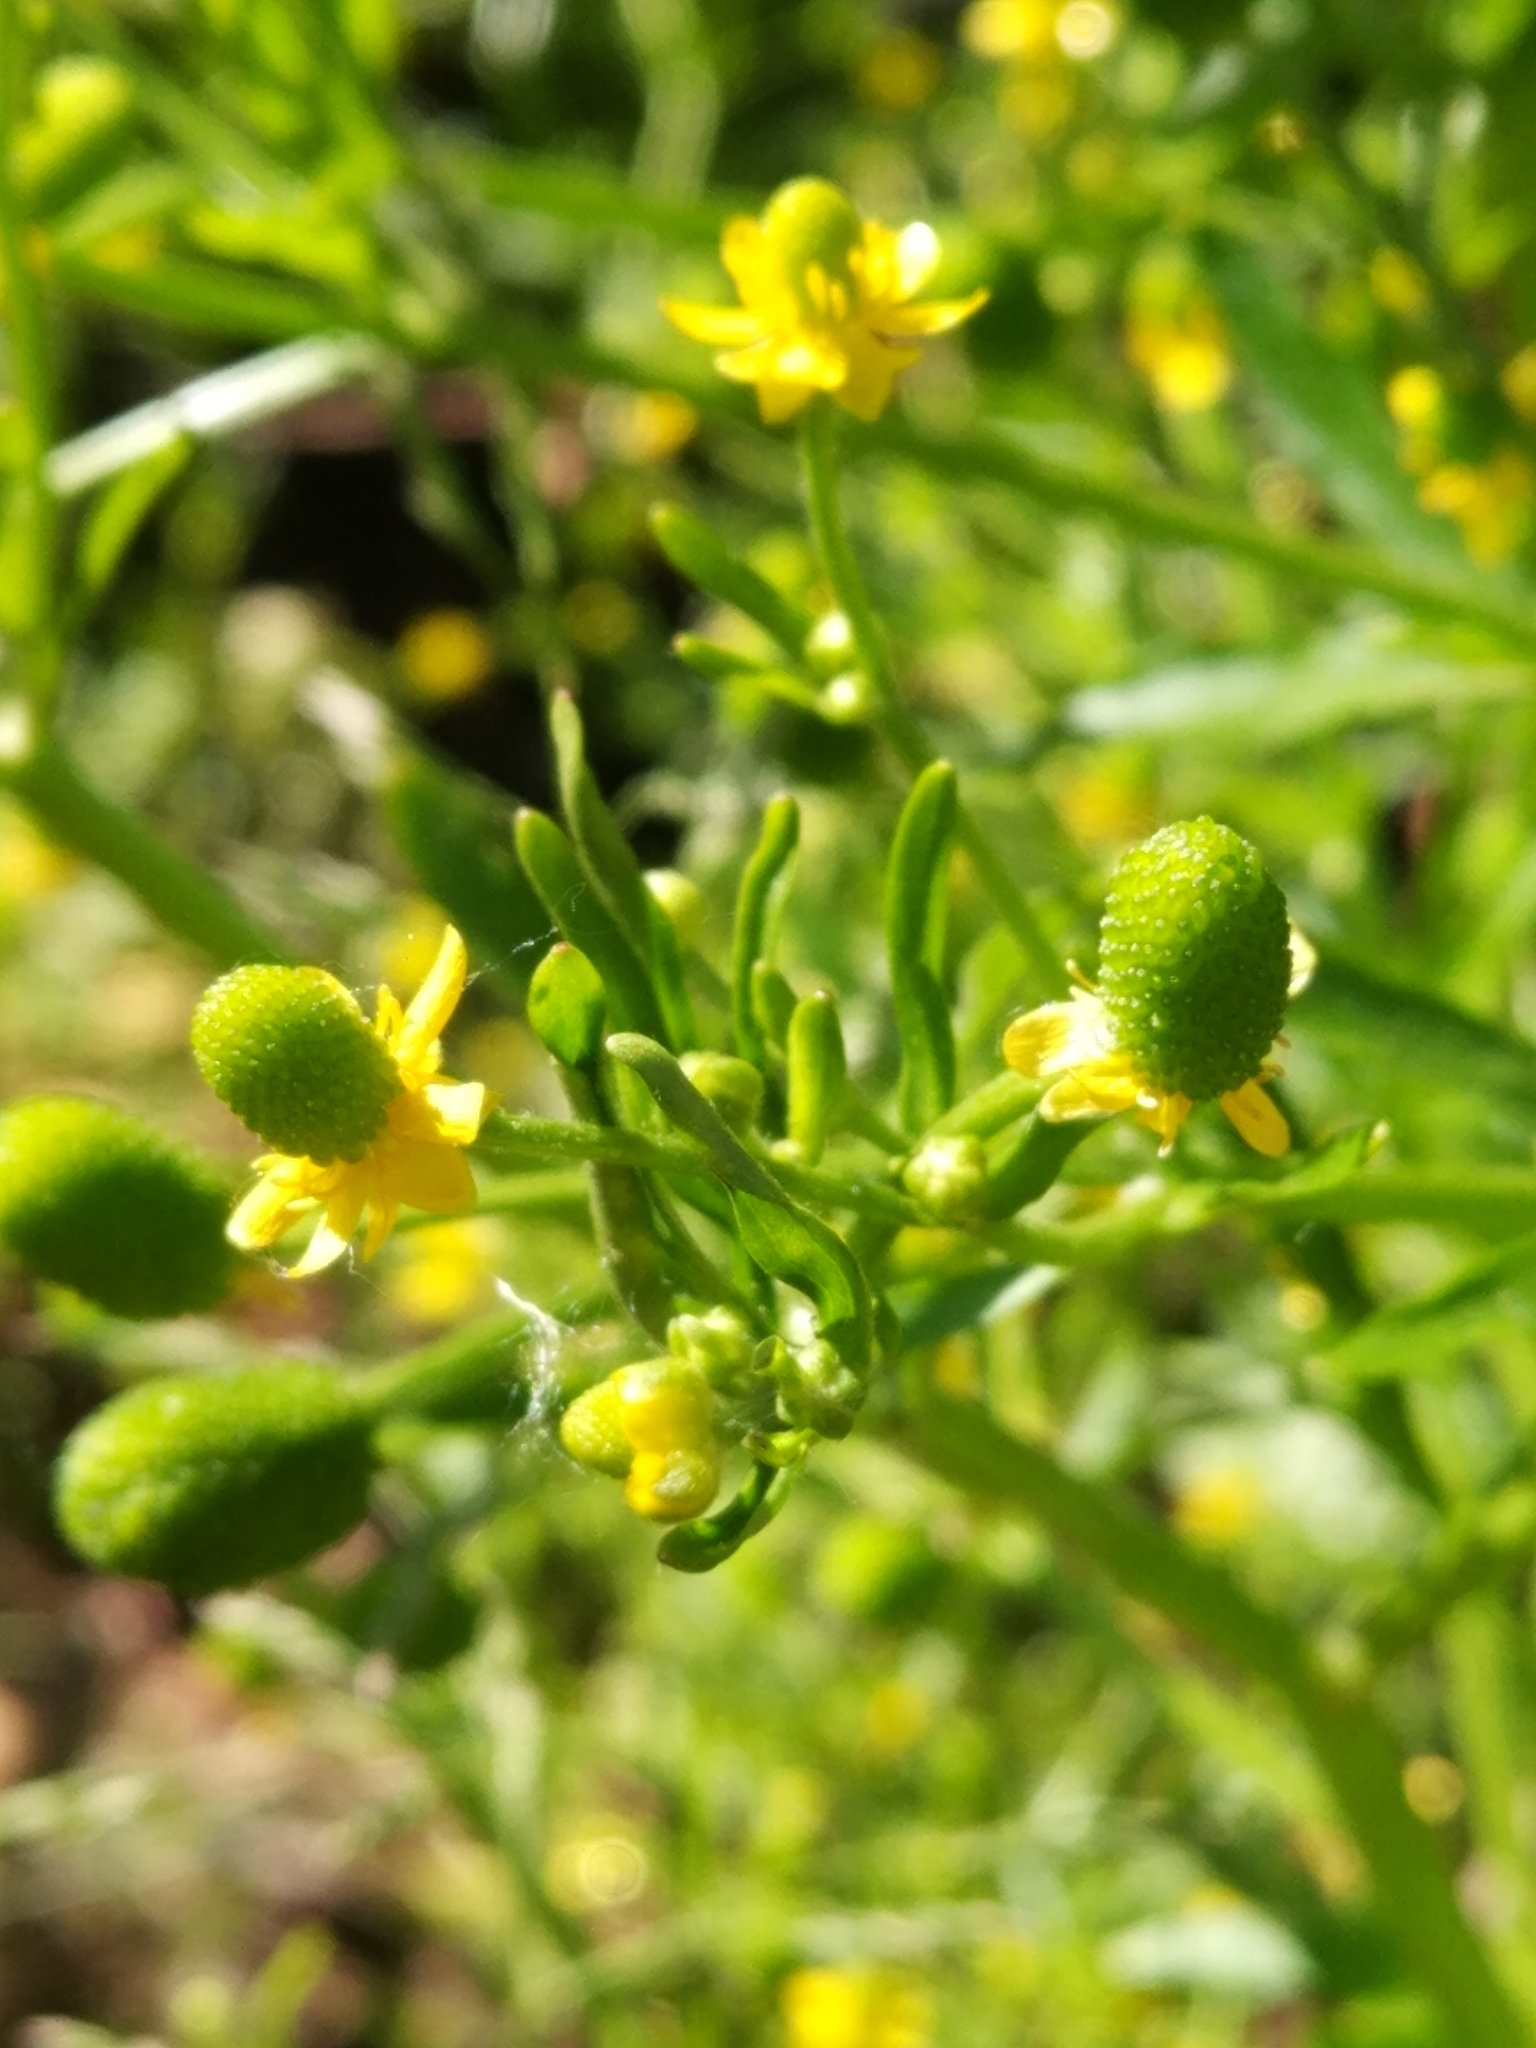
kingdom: Plantae
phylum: Tracheophyta
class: Magnoliopsida
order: Ranunculales
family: Ranunculaceae
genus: Ranunculus
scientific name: Ranunculus sceleratus
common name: Celery-leaved buttercup
